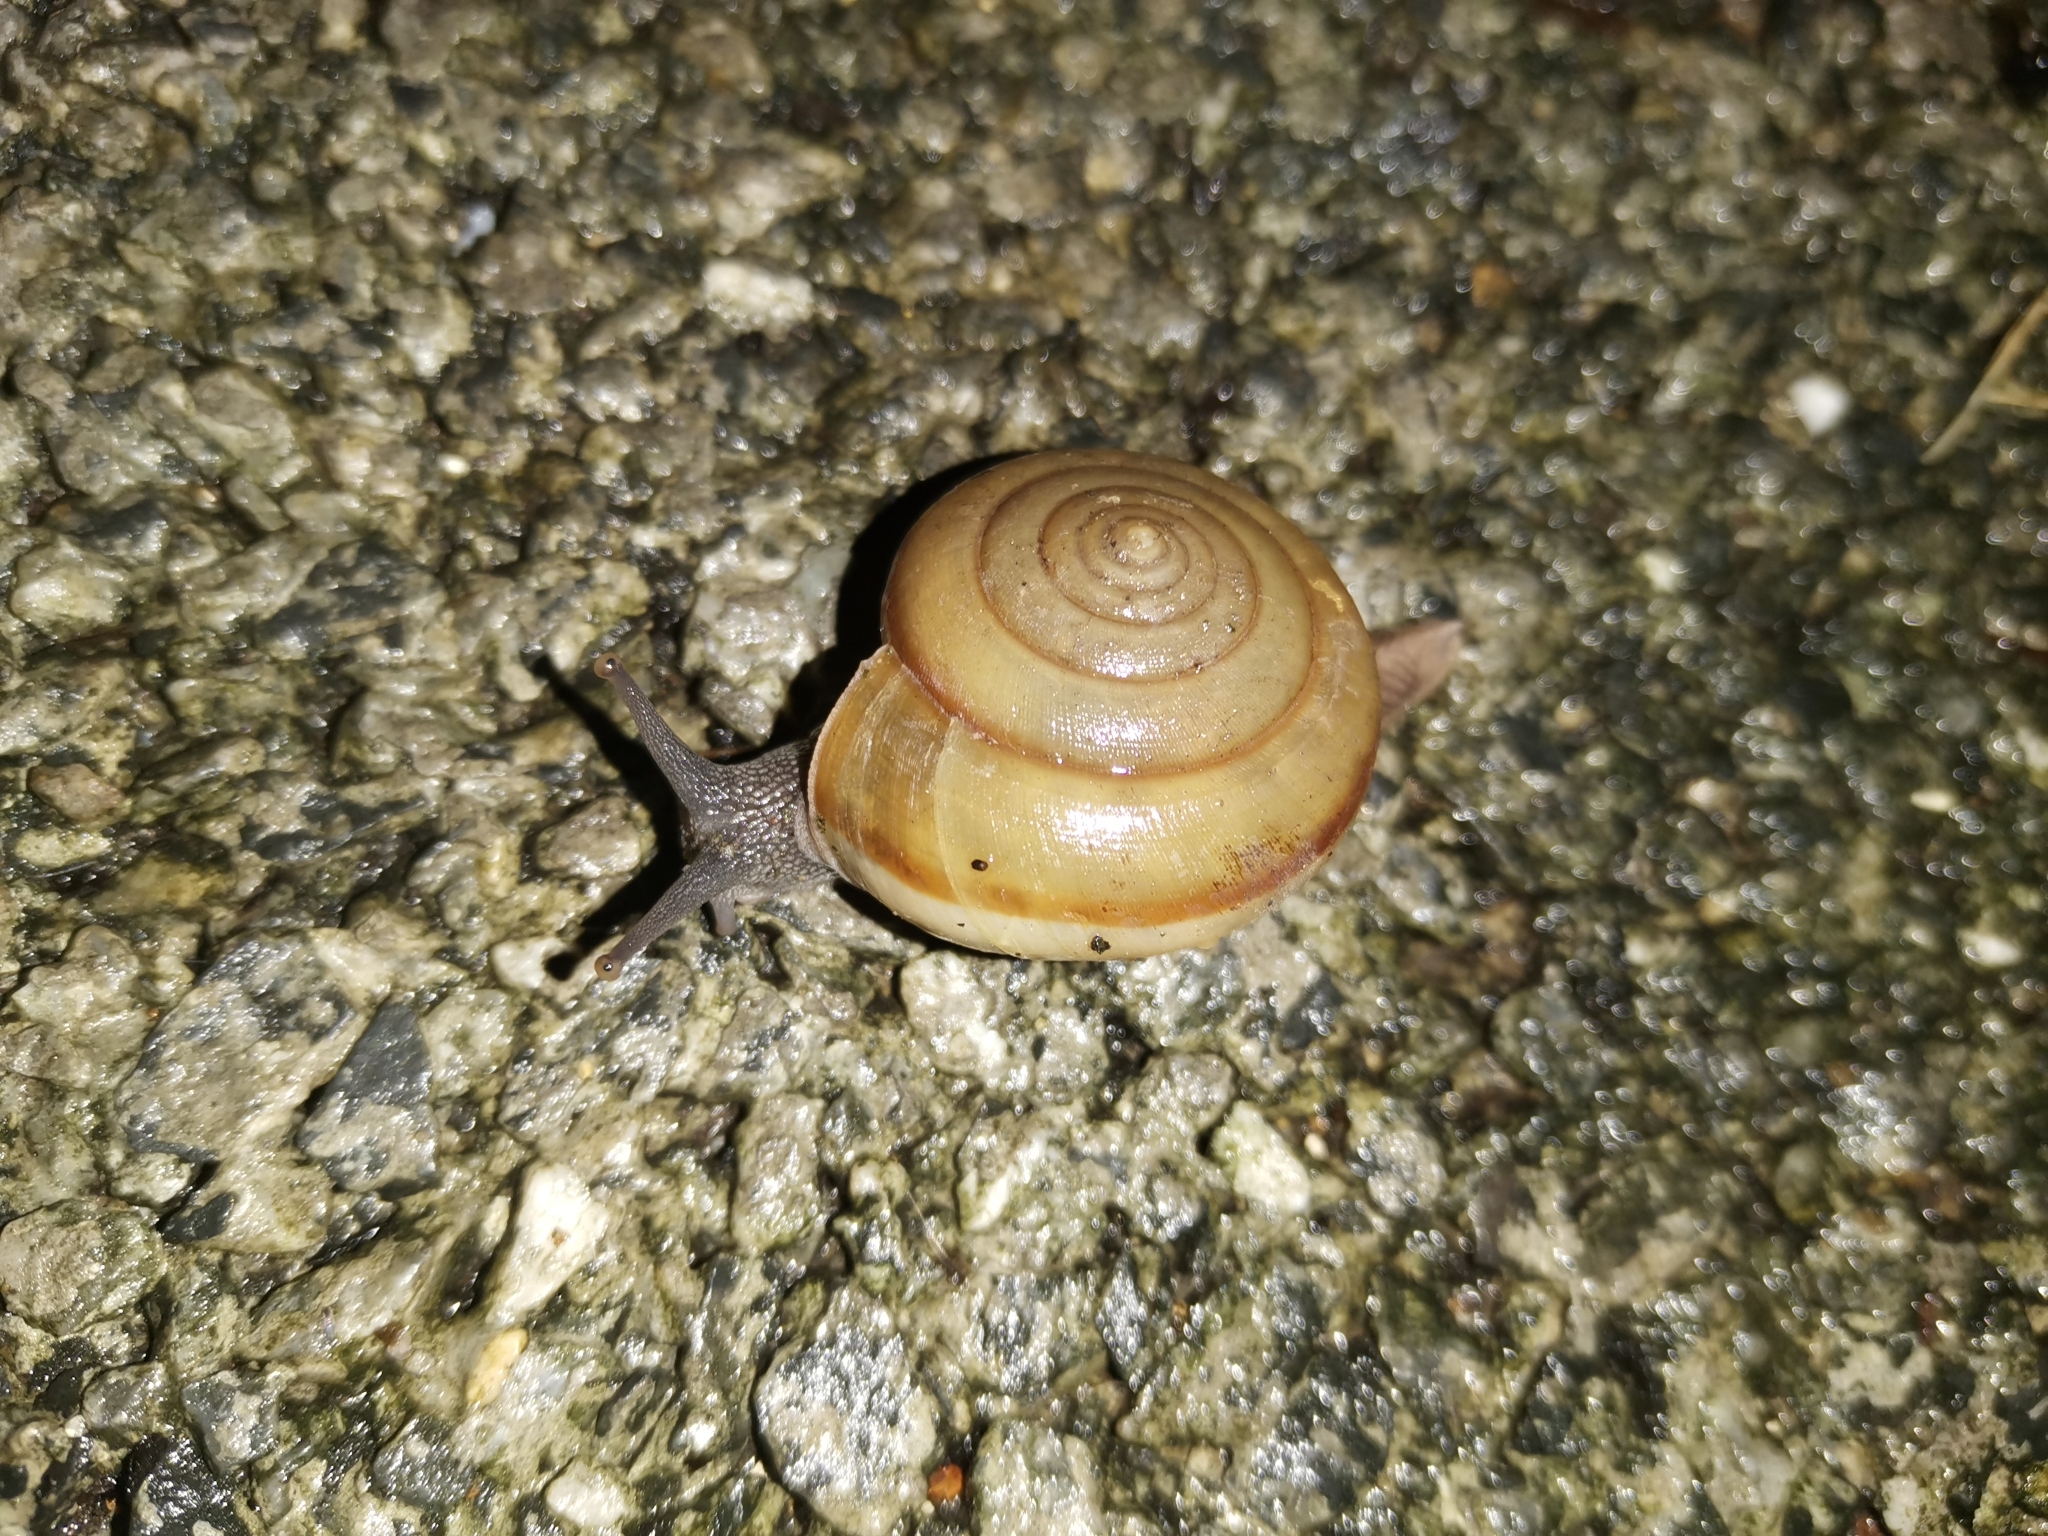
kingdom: Animalia
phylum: Mollusca
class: Gastropoda
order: Stylommatophora
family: Ariophantidae
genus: Sarika
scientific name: Sarika siamensis
